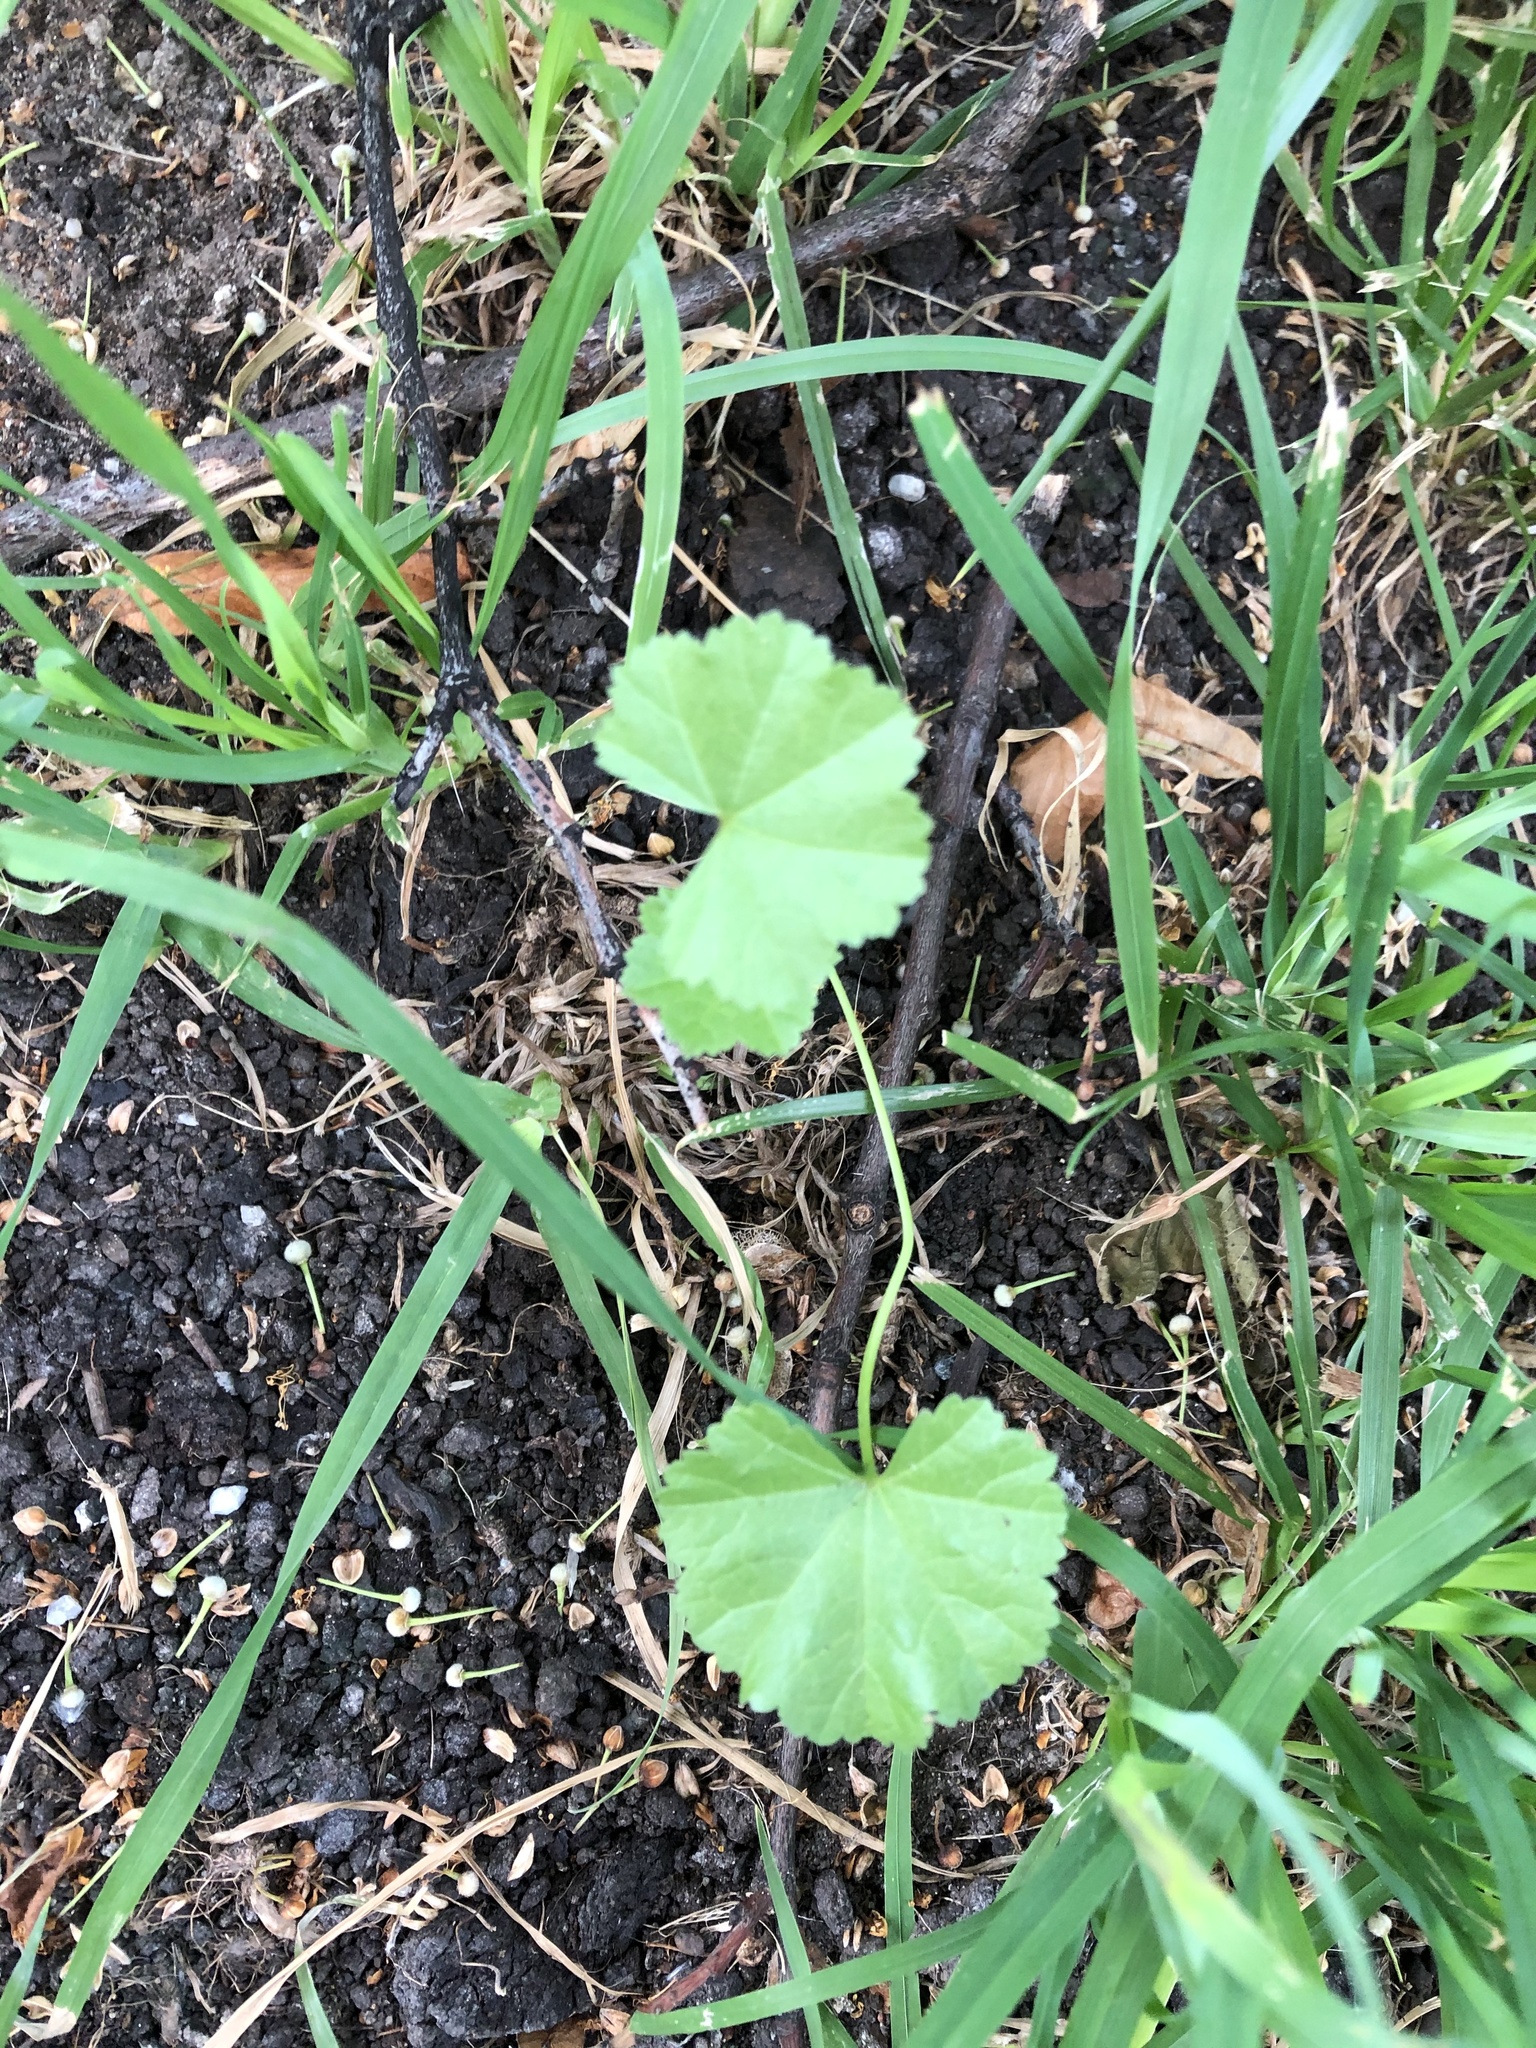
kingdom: Plantae
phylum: Tracheophyta
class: Magnoliopsida
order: Malvales
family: Malvaceae
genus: Malva
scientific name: Malva pusilla
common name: Small mallow
